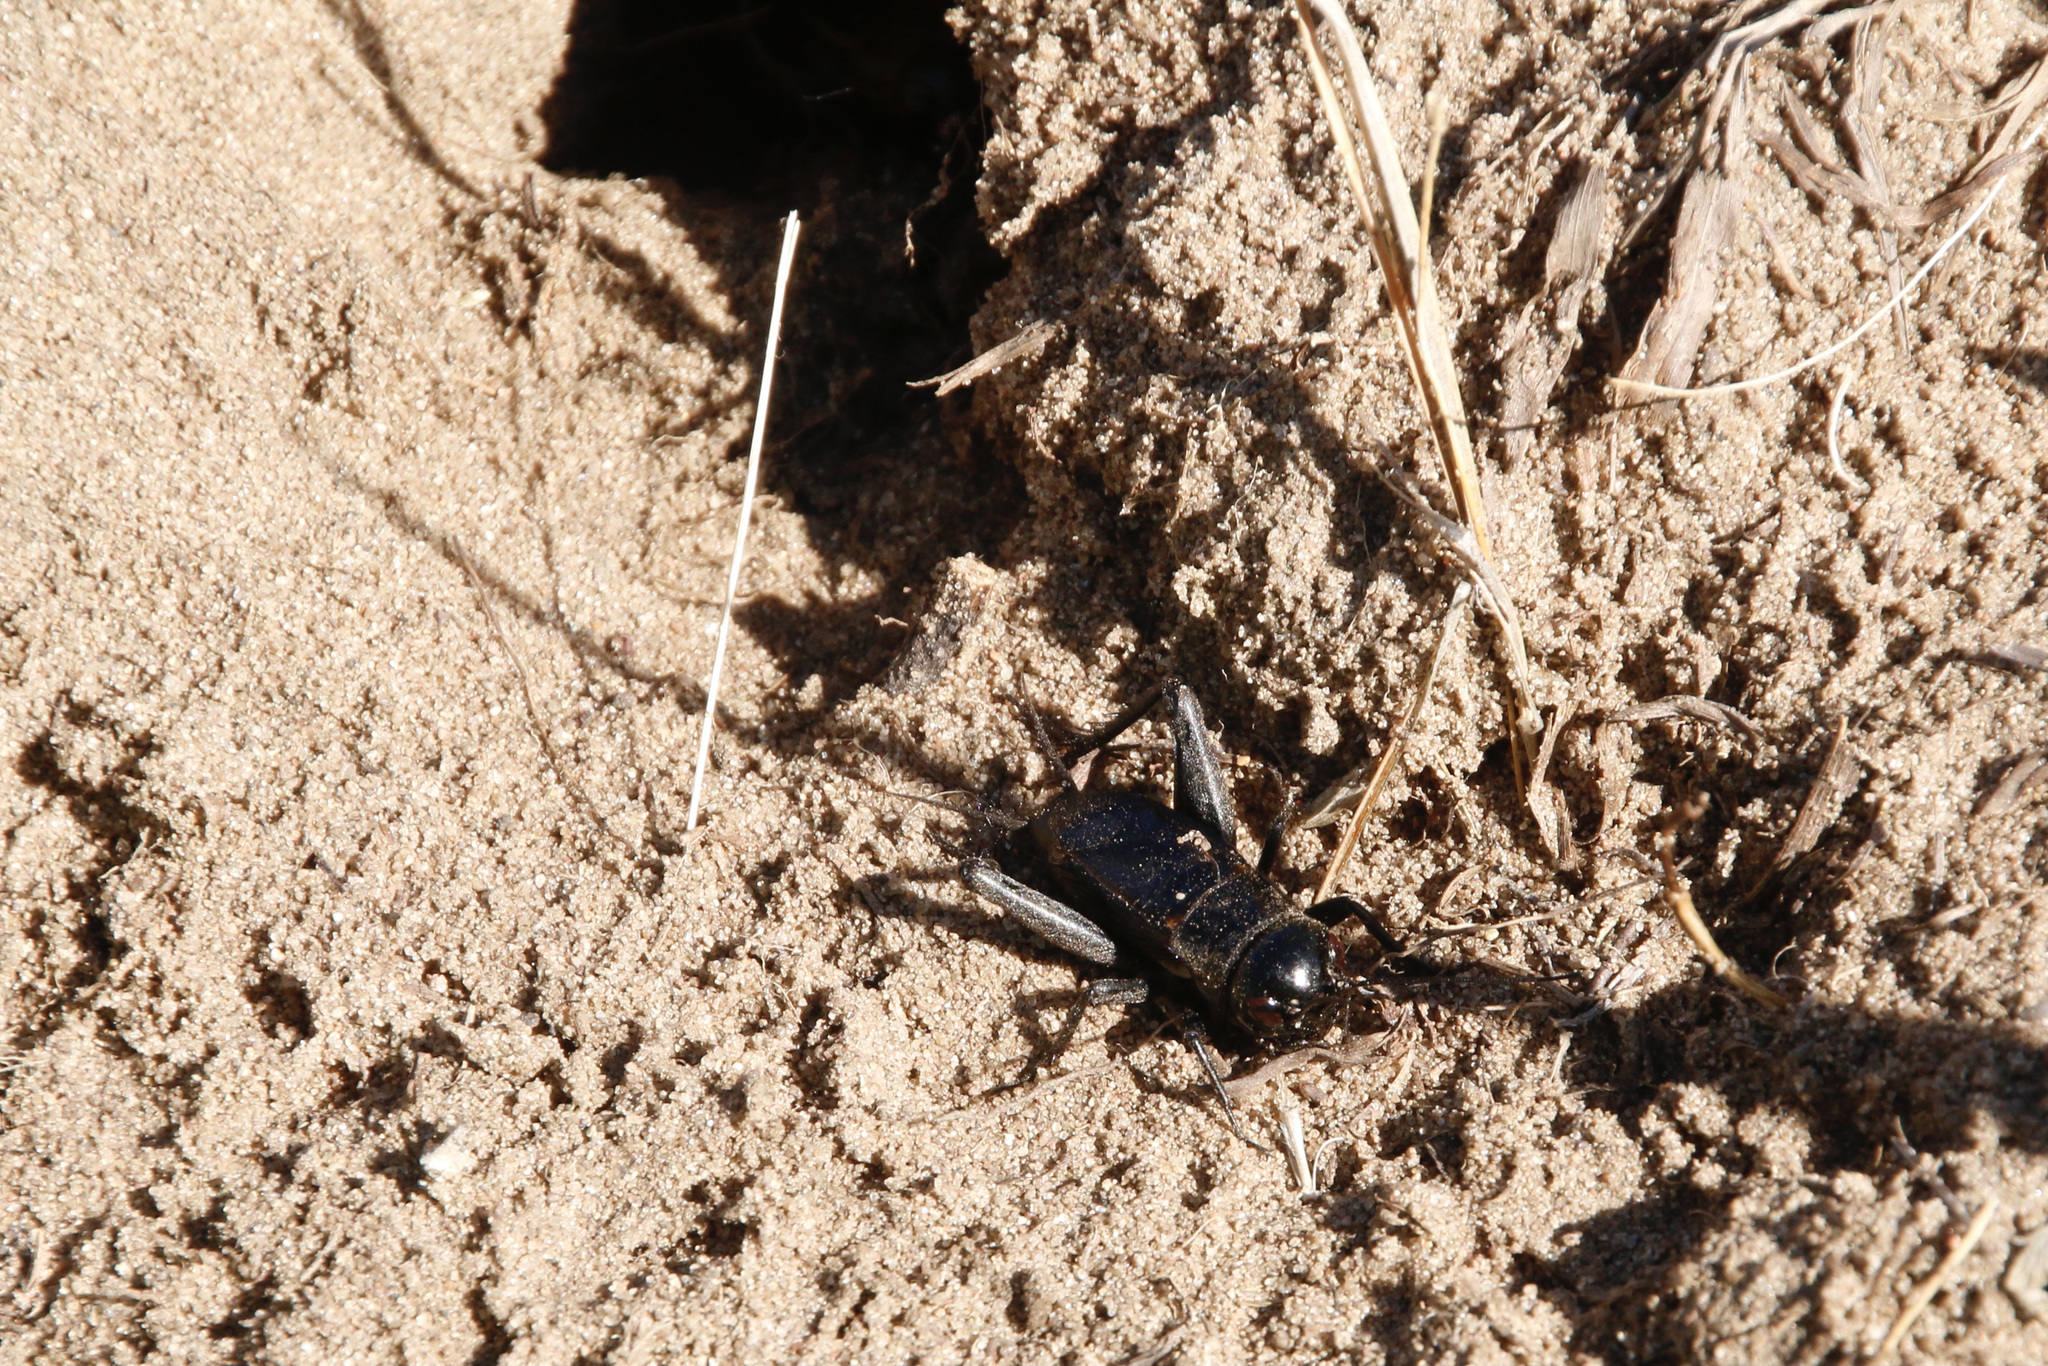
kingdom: Animalia
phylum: Arthropoda
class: Insecta
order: Orthoptera
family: Gryllidae
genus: Gryllus
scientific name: Gryllus veletis
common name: Spring field cricket
